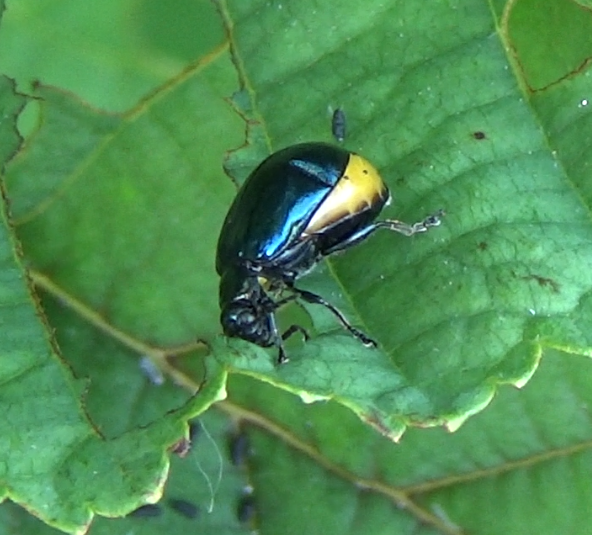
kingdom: Animalia
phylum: Arthropoda
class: Insecta
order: Coleoptera
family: Chrysomelidae
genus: Agelastica
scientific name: Agelastica alni
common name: Alder leaf beetle
